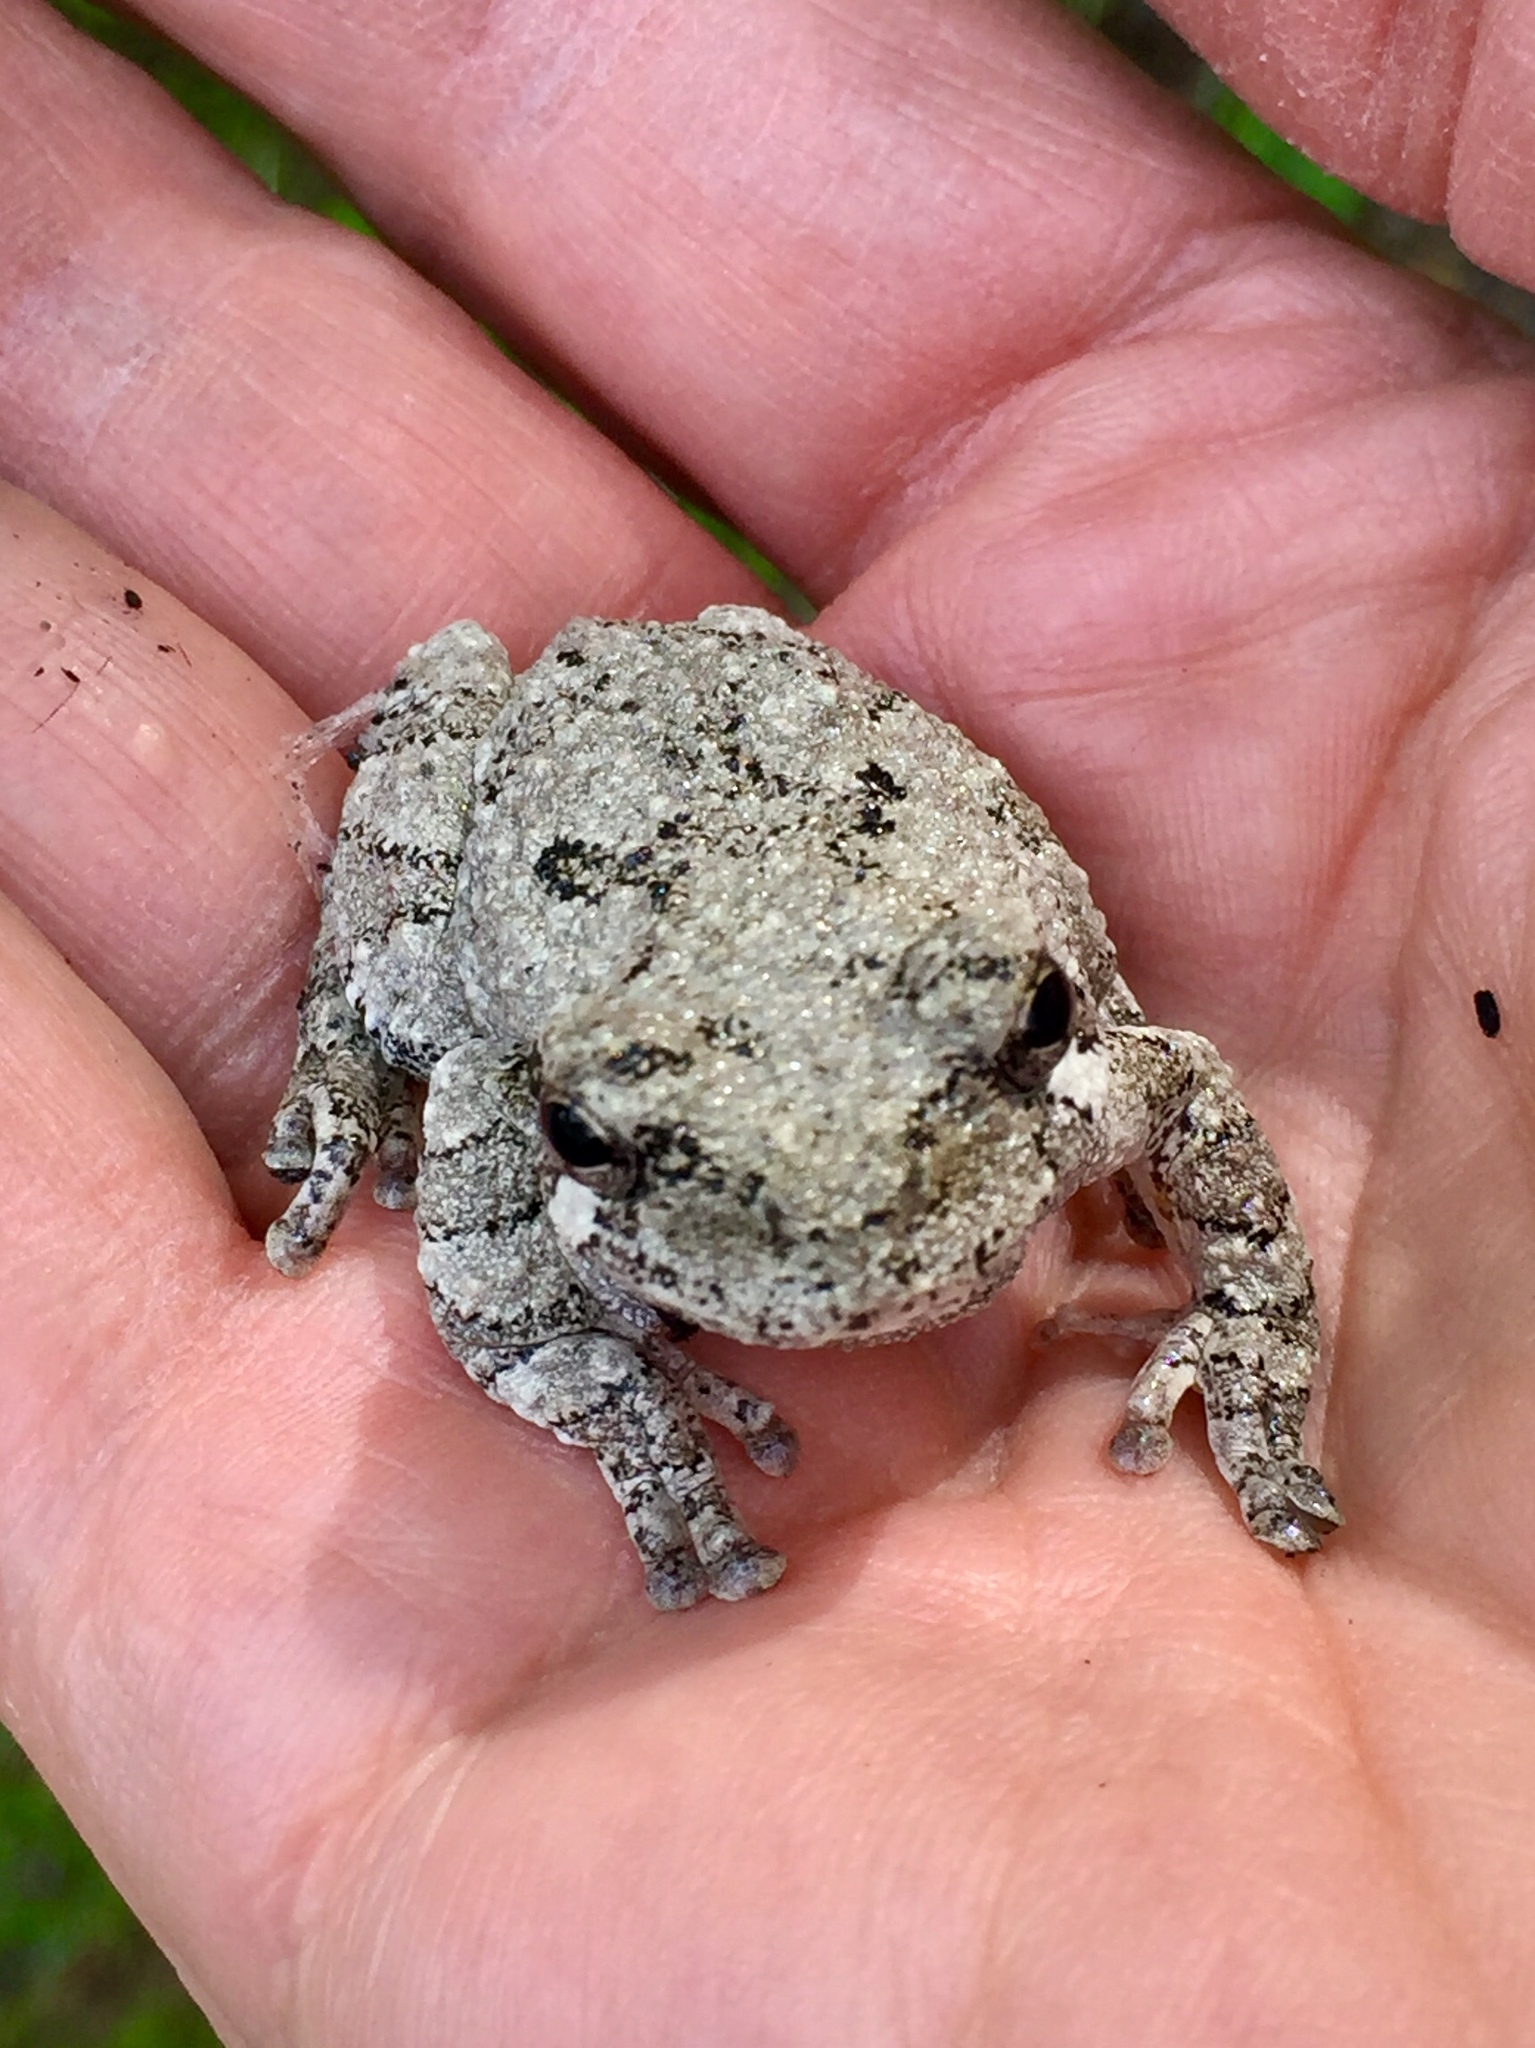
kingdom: Animalia
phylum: Chordata
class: Amphibia
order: Anura
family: Hylidae
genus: Dryophytes
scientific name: Dryophytes versicolor
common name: Gray treefrog
